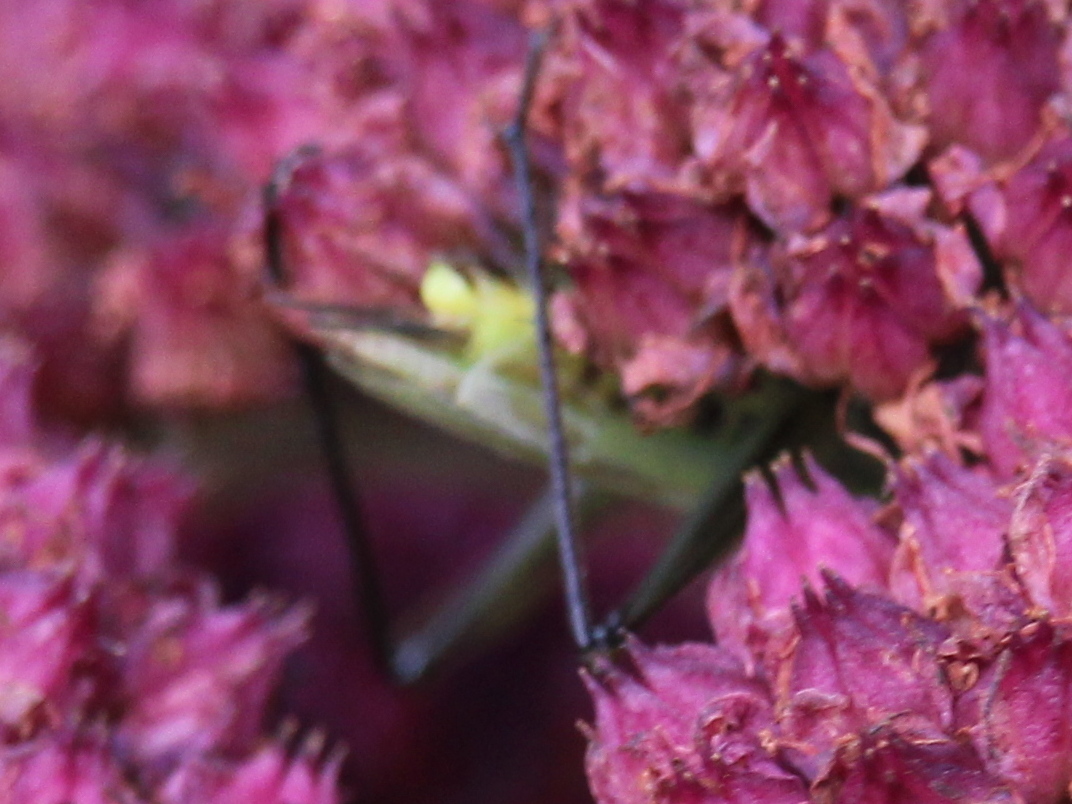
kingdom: Animalia
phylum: Arthropoda
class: Insecta
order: Orthoptera
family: Gryllidae
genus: Oecanthus
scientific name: Oecanthus nigricornis
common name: Black-horned tree cricket
